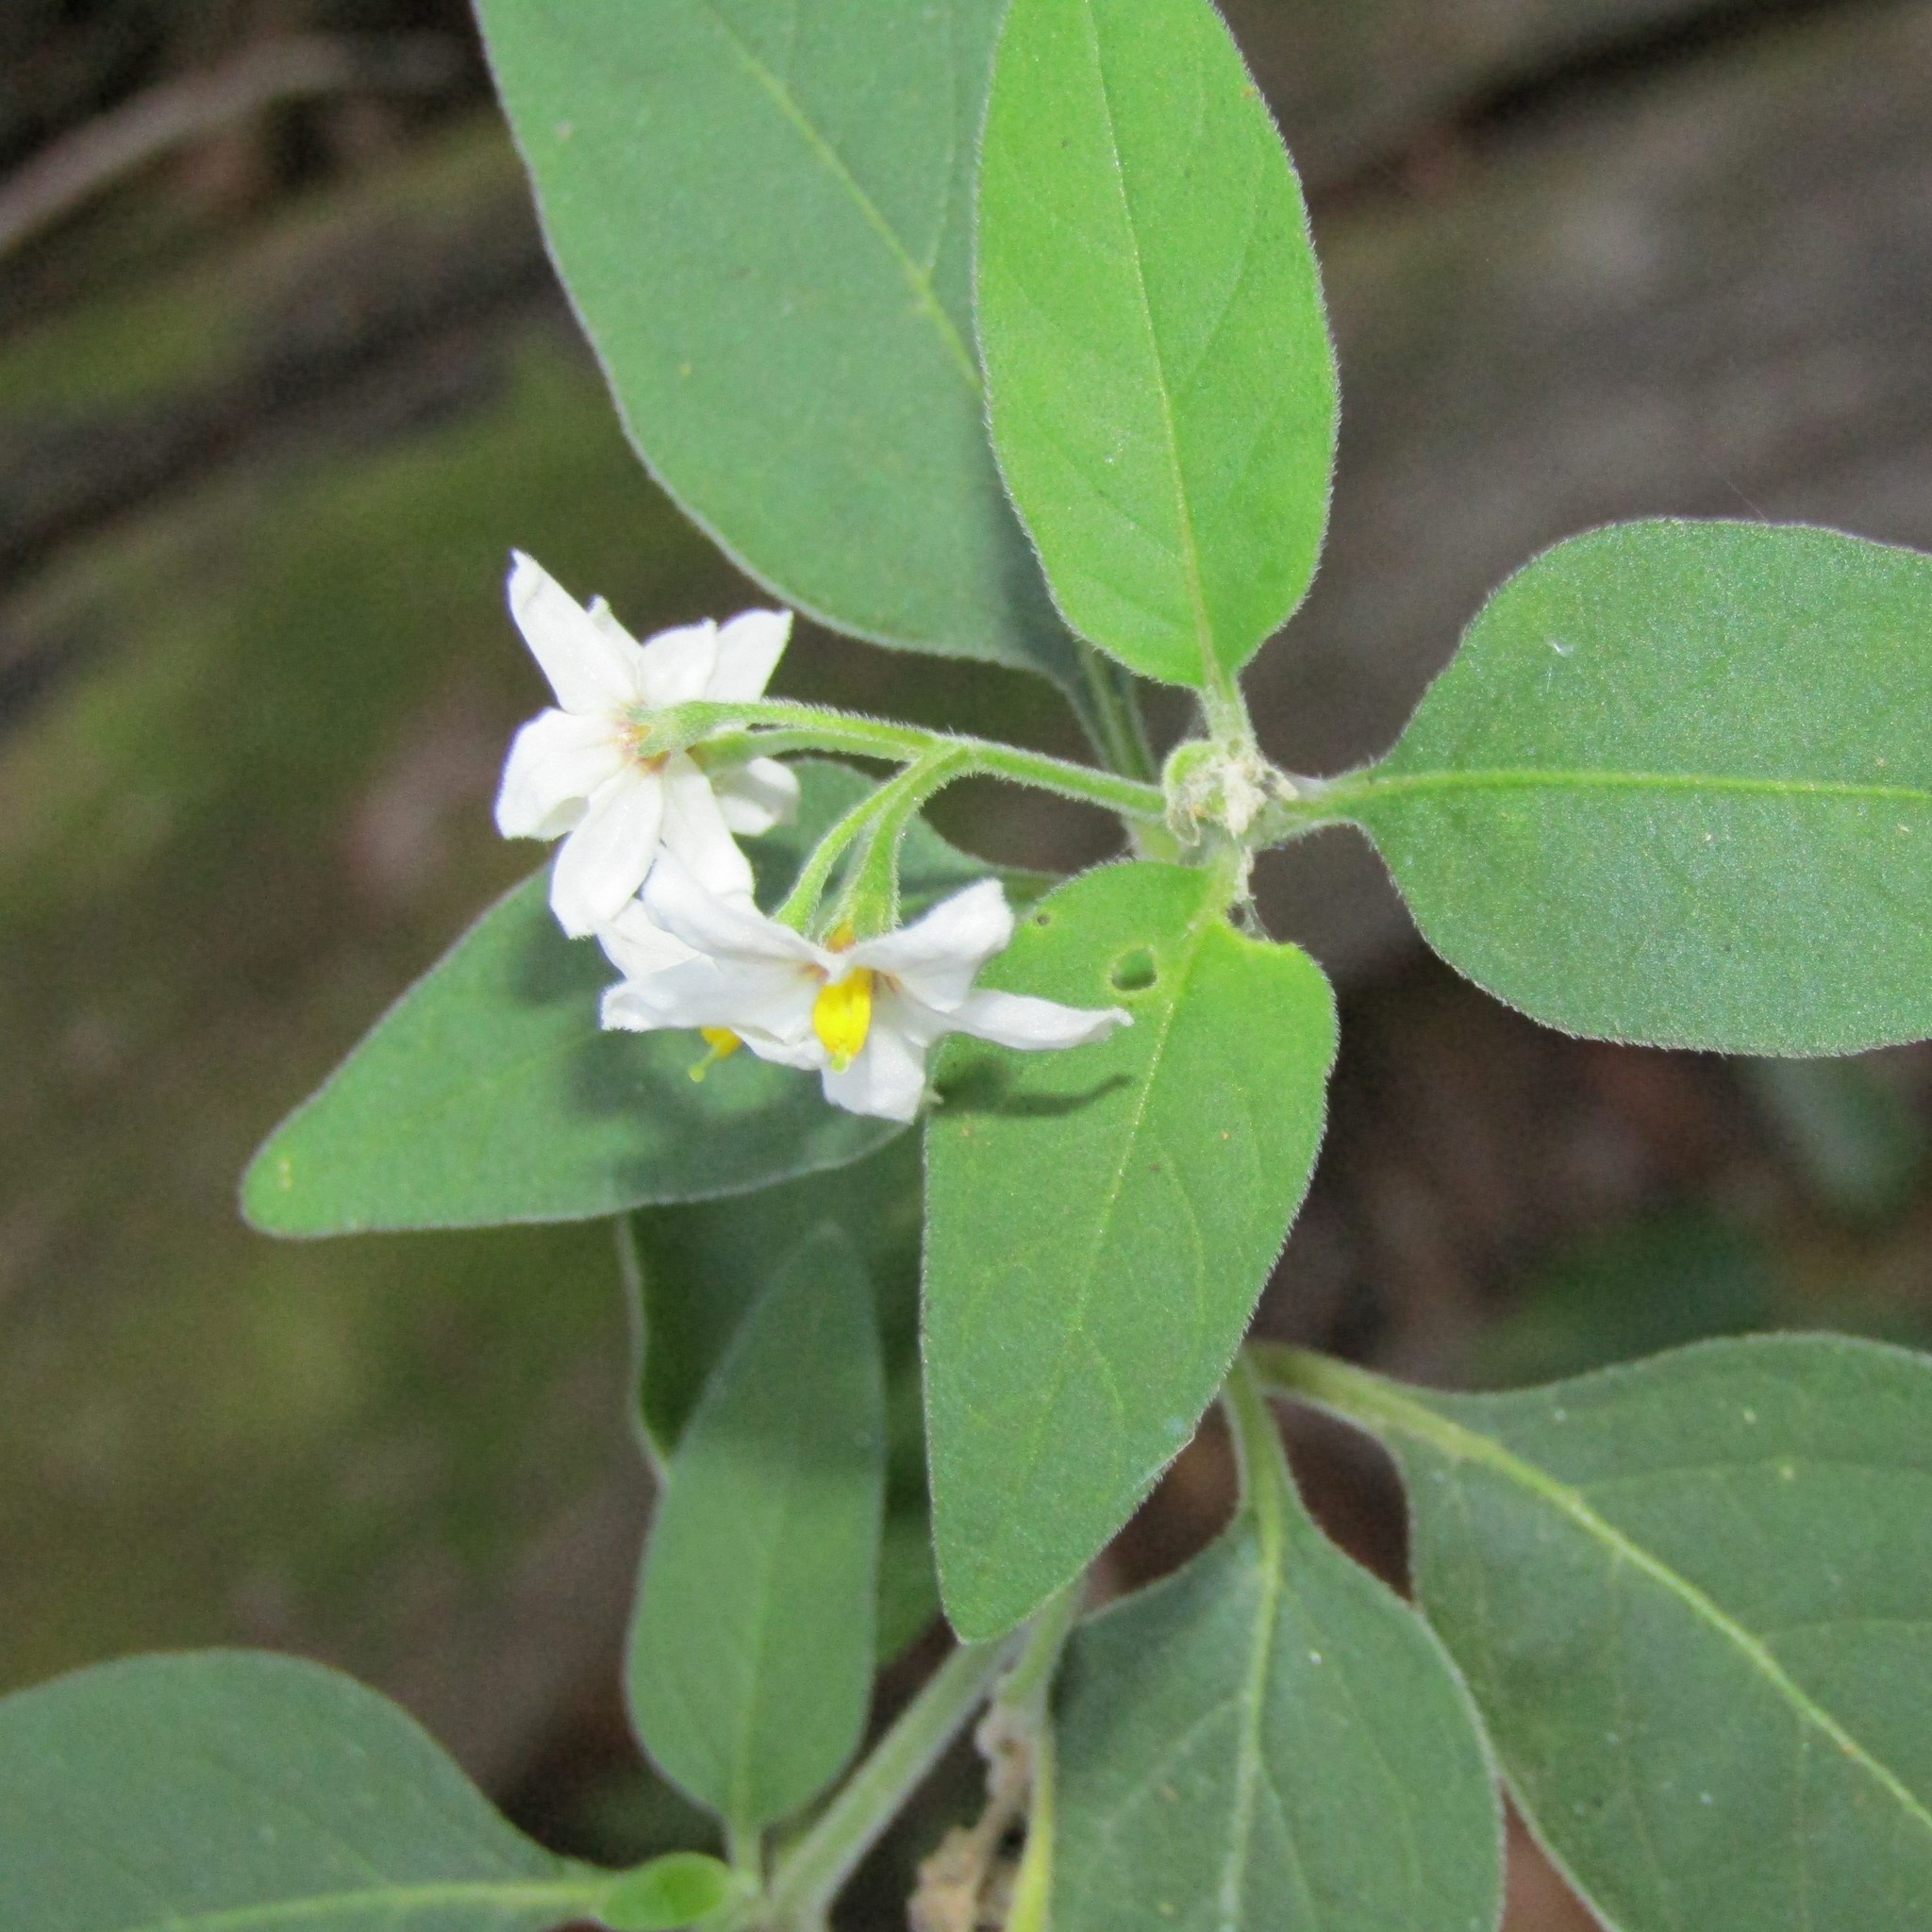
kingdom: Plantae
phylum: Tracheophyta
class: Magnoliopsida
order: Solanales
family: Solanaceae
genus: Solanum
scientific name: Solanum chenopodioides
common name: Tall nightshade
